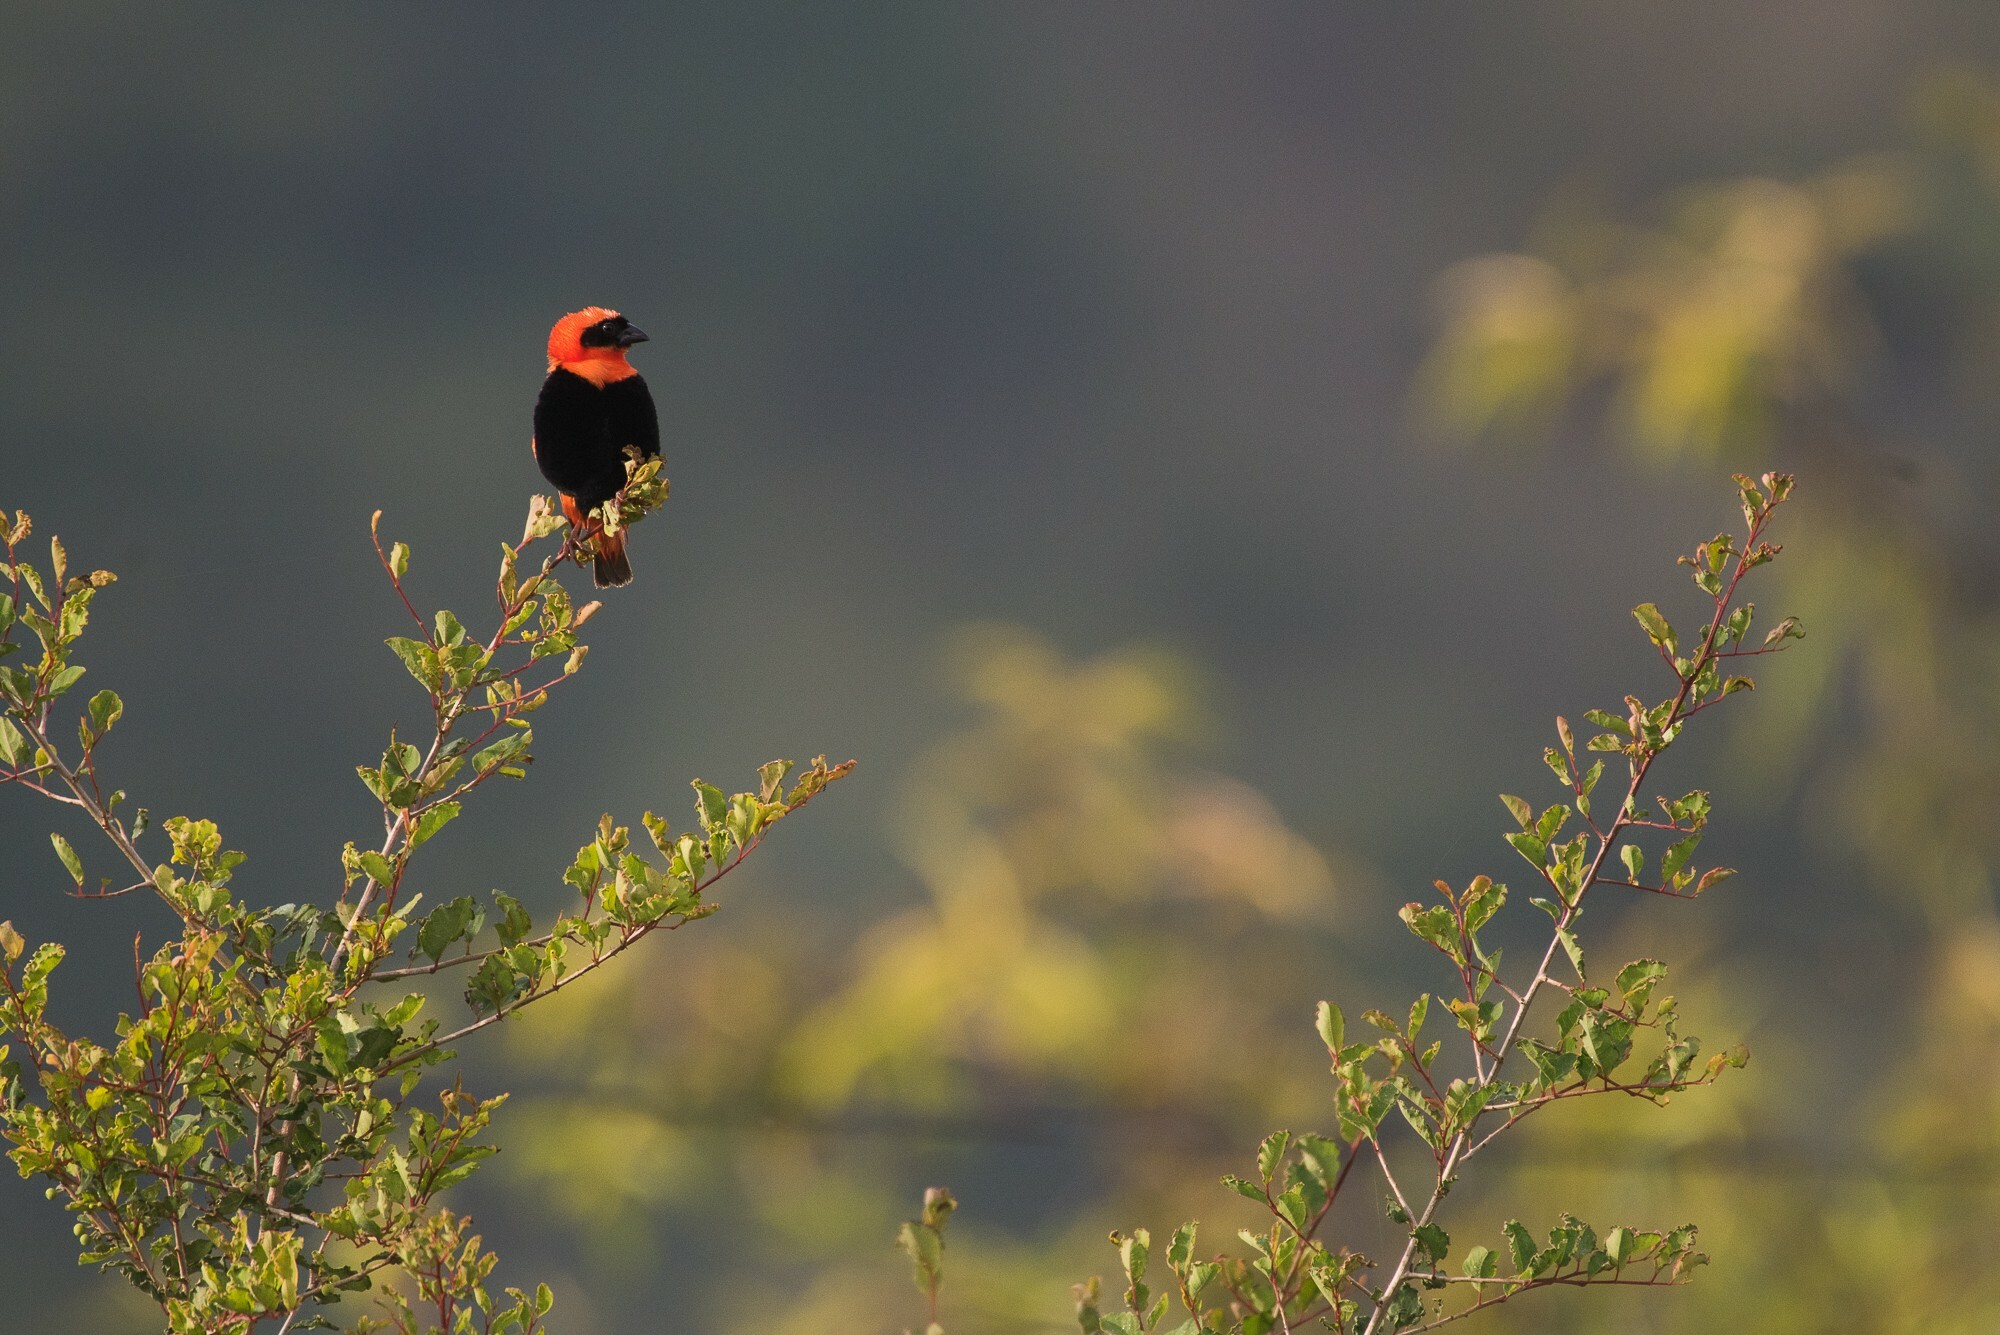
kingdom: Animalia
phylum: Chordata
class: Aves
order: Passeriformes
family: Ploceidae
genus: Euplectes
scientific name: Euplectes orix
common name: Southern red bishop
